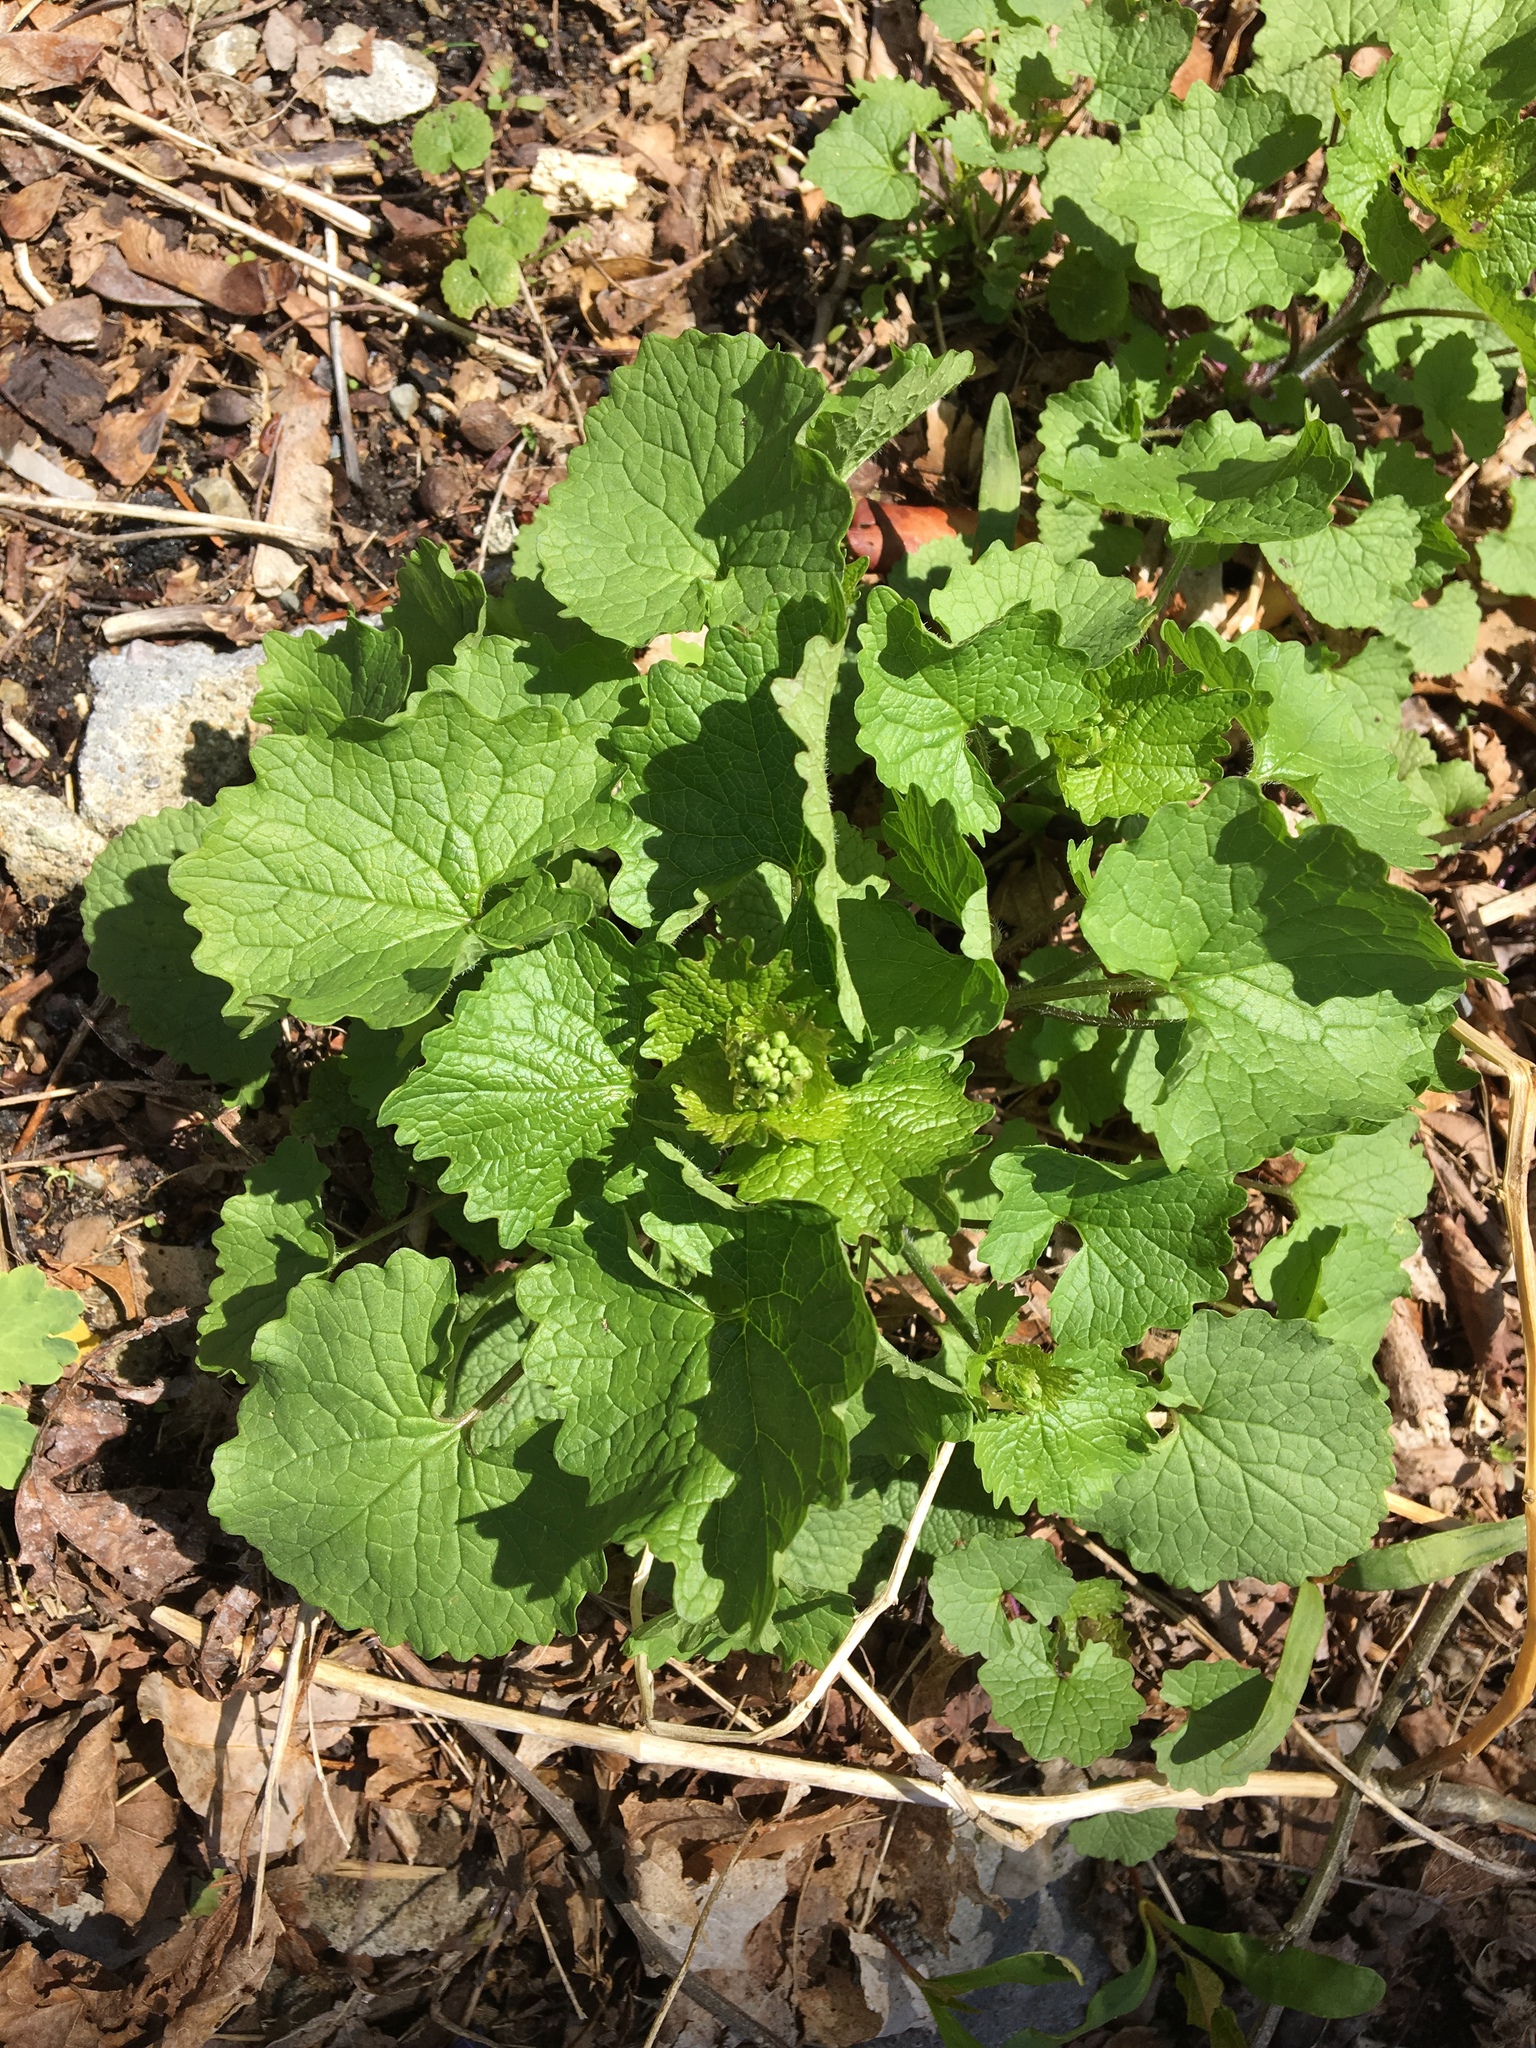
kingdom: Plantae
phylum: Tracheophyta
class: Magnoliopsida
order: Brassicales
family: Brassicaceae
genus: Alliaria
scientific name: Alliaria petiolata
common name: Garlic mustard
